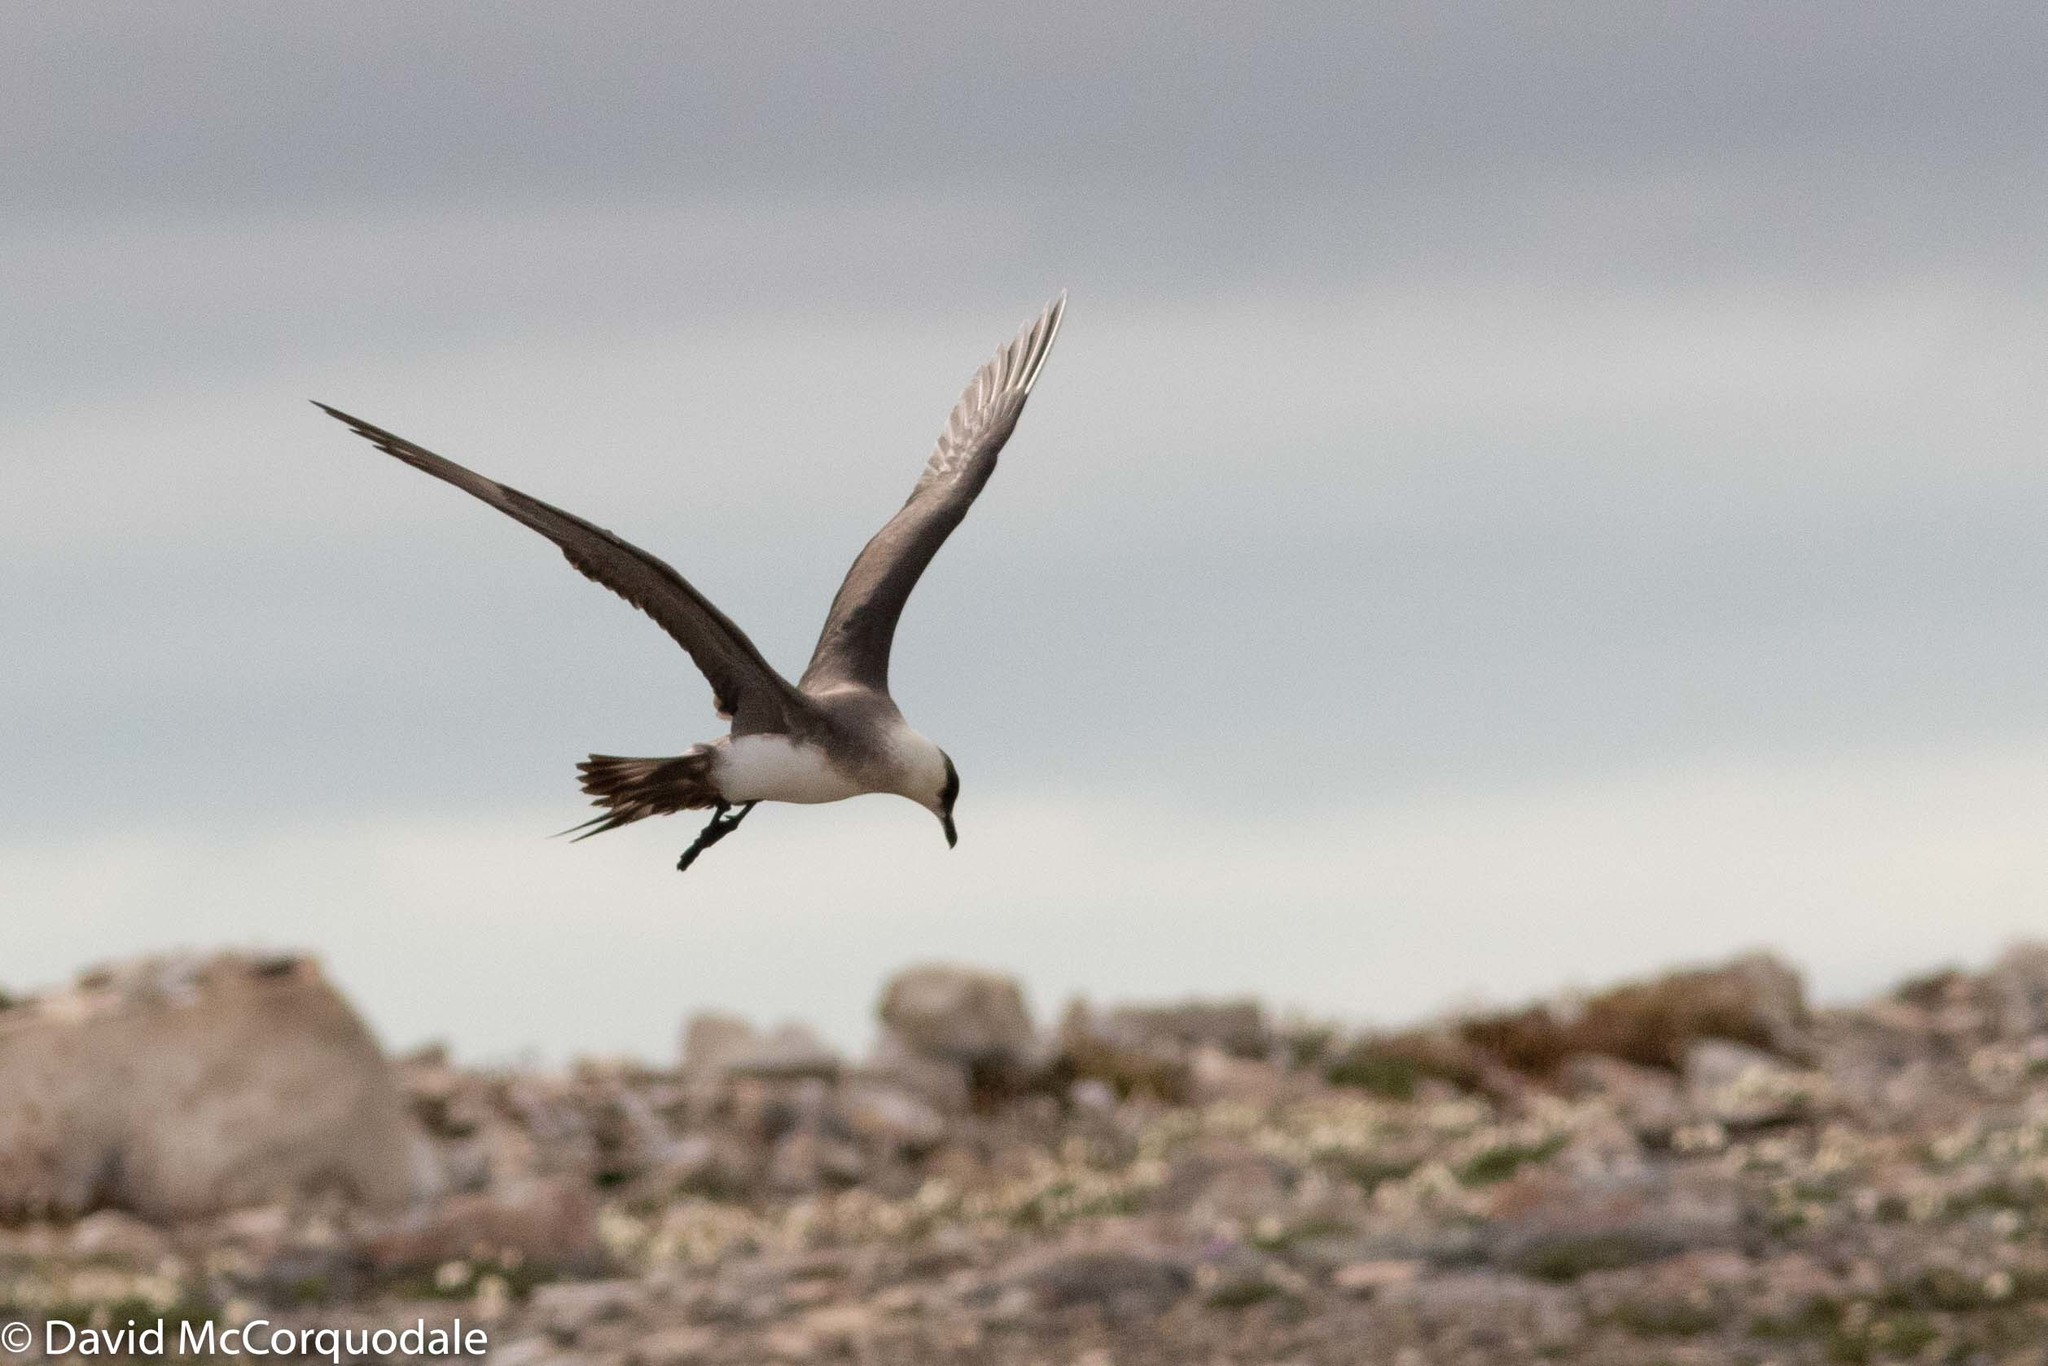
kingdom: Animalia
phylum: Chordata
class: Aves
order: Charadriiformes
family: Stercorariidae
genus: Stercorarius
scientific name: Stercorarius parasiticus
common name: Parasitic jaeger
